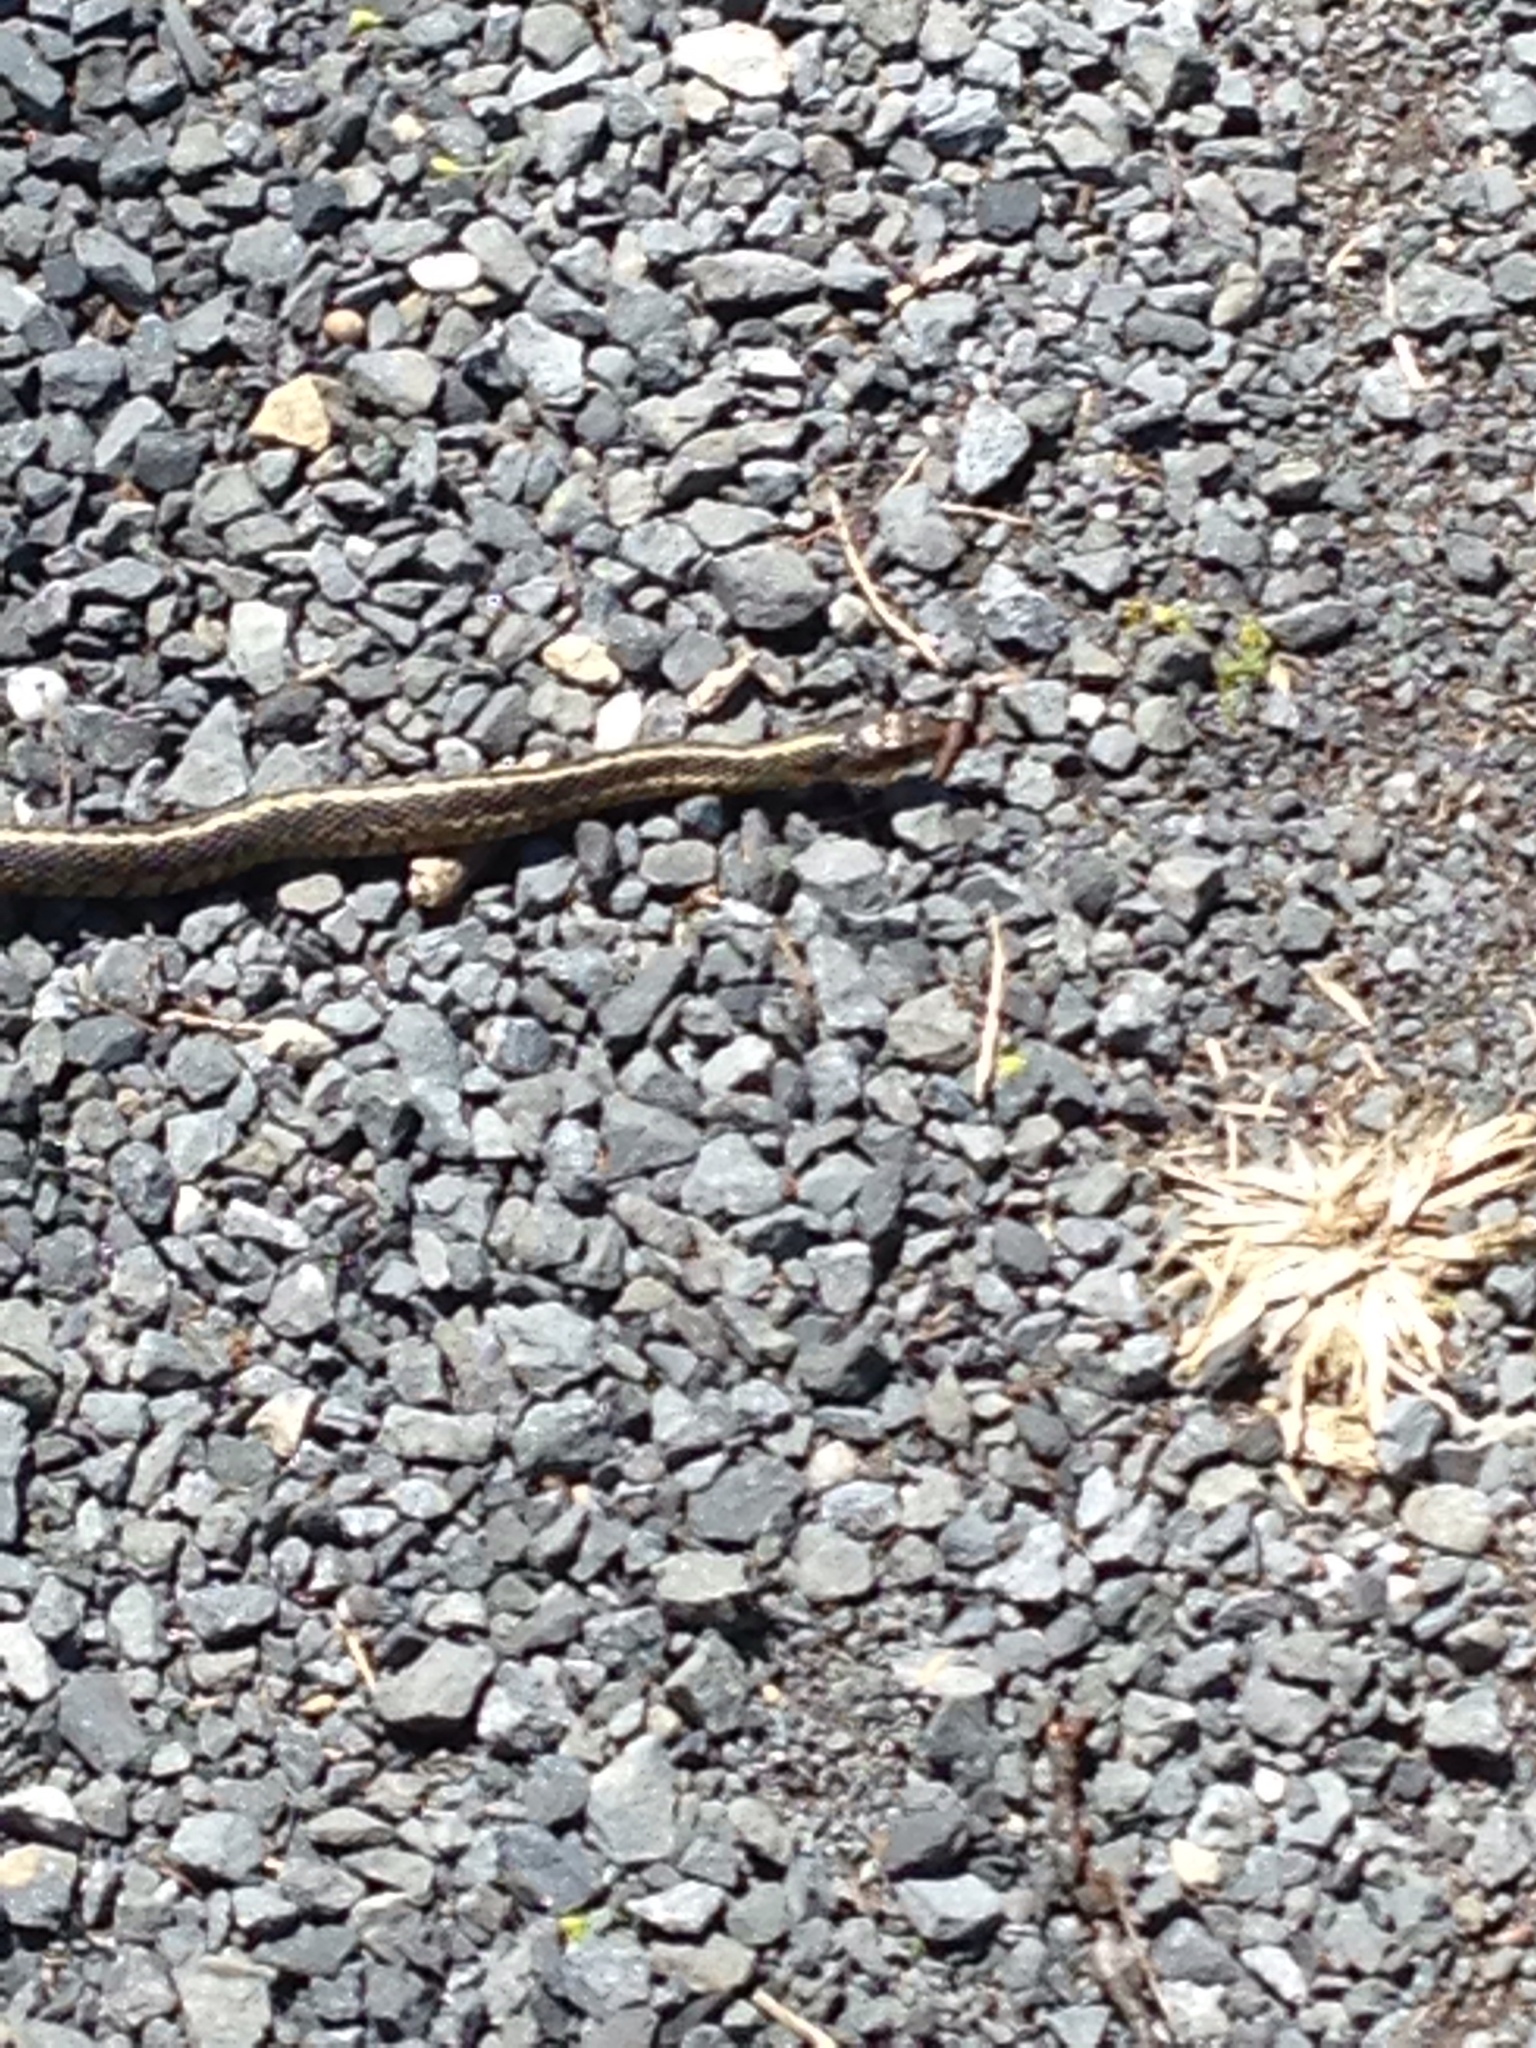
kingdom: Animalia
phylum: Chordata
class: Squamata
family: Colubridae
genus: Thamnophis
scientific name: Thamnophis sirtalis
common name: Common garter snake
